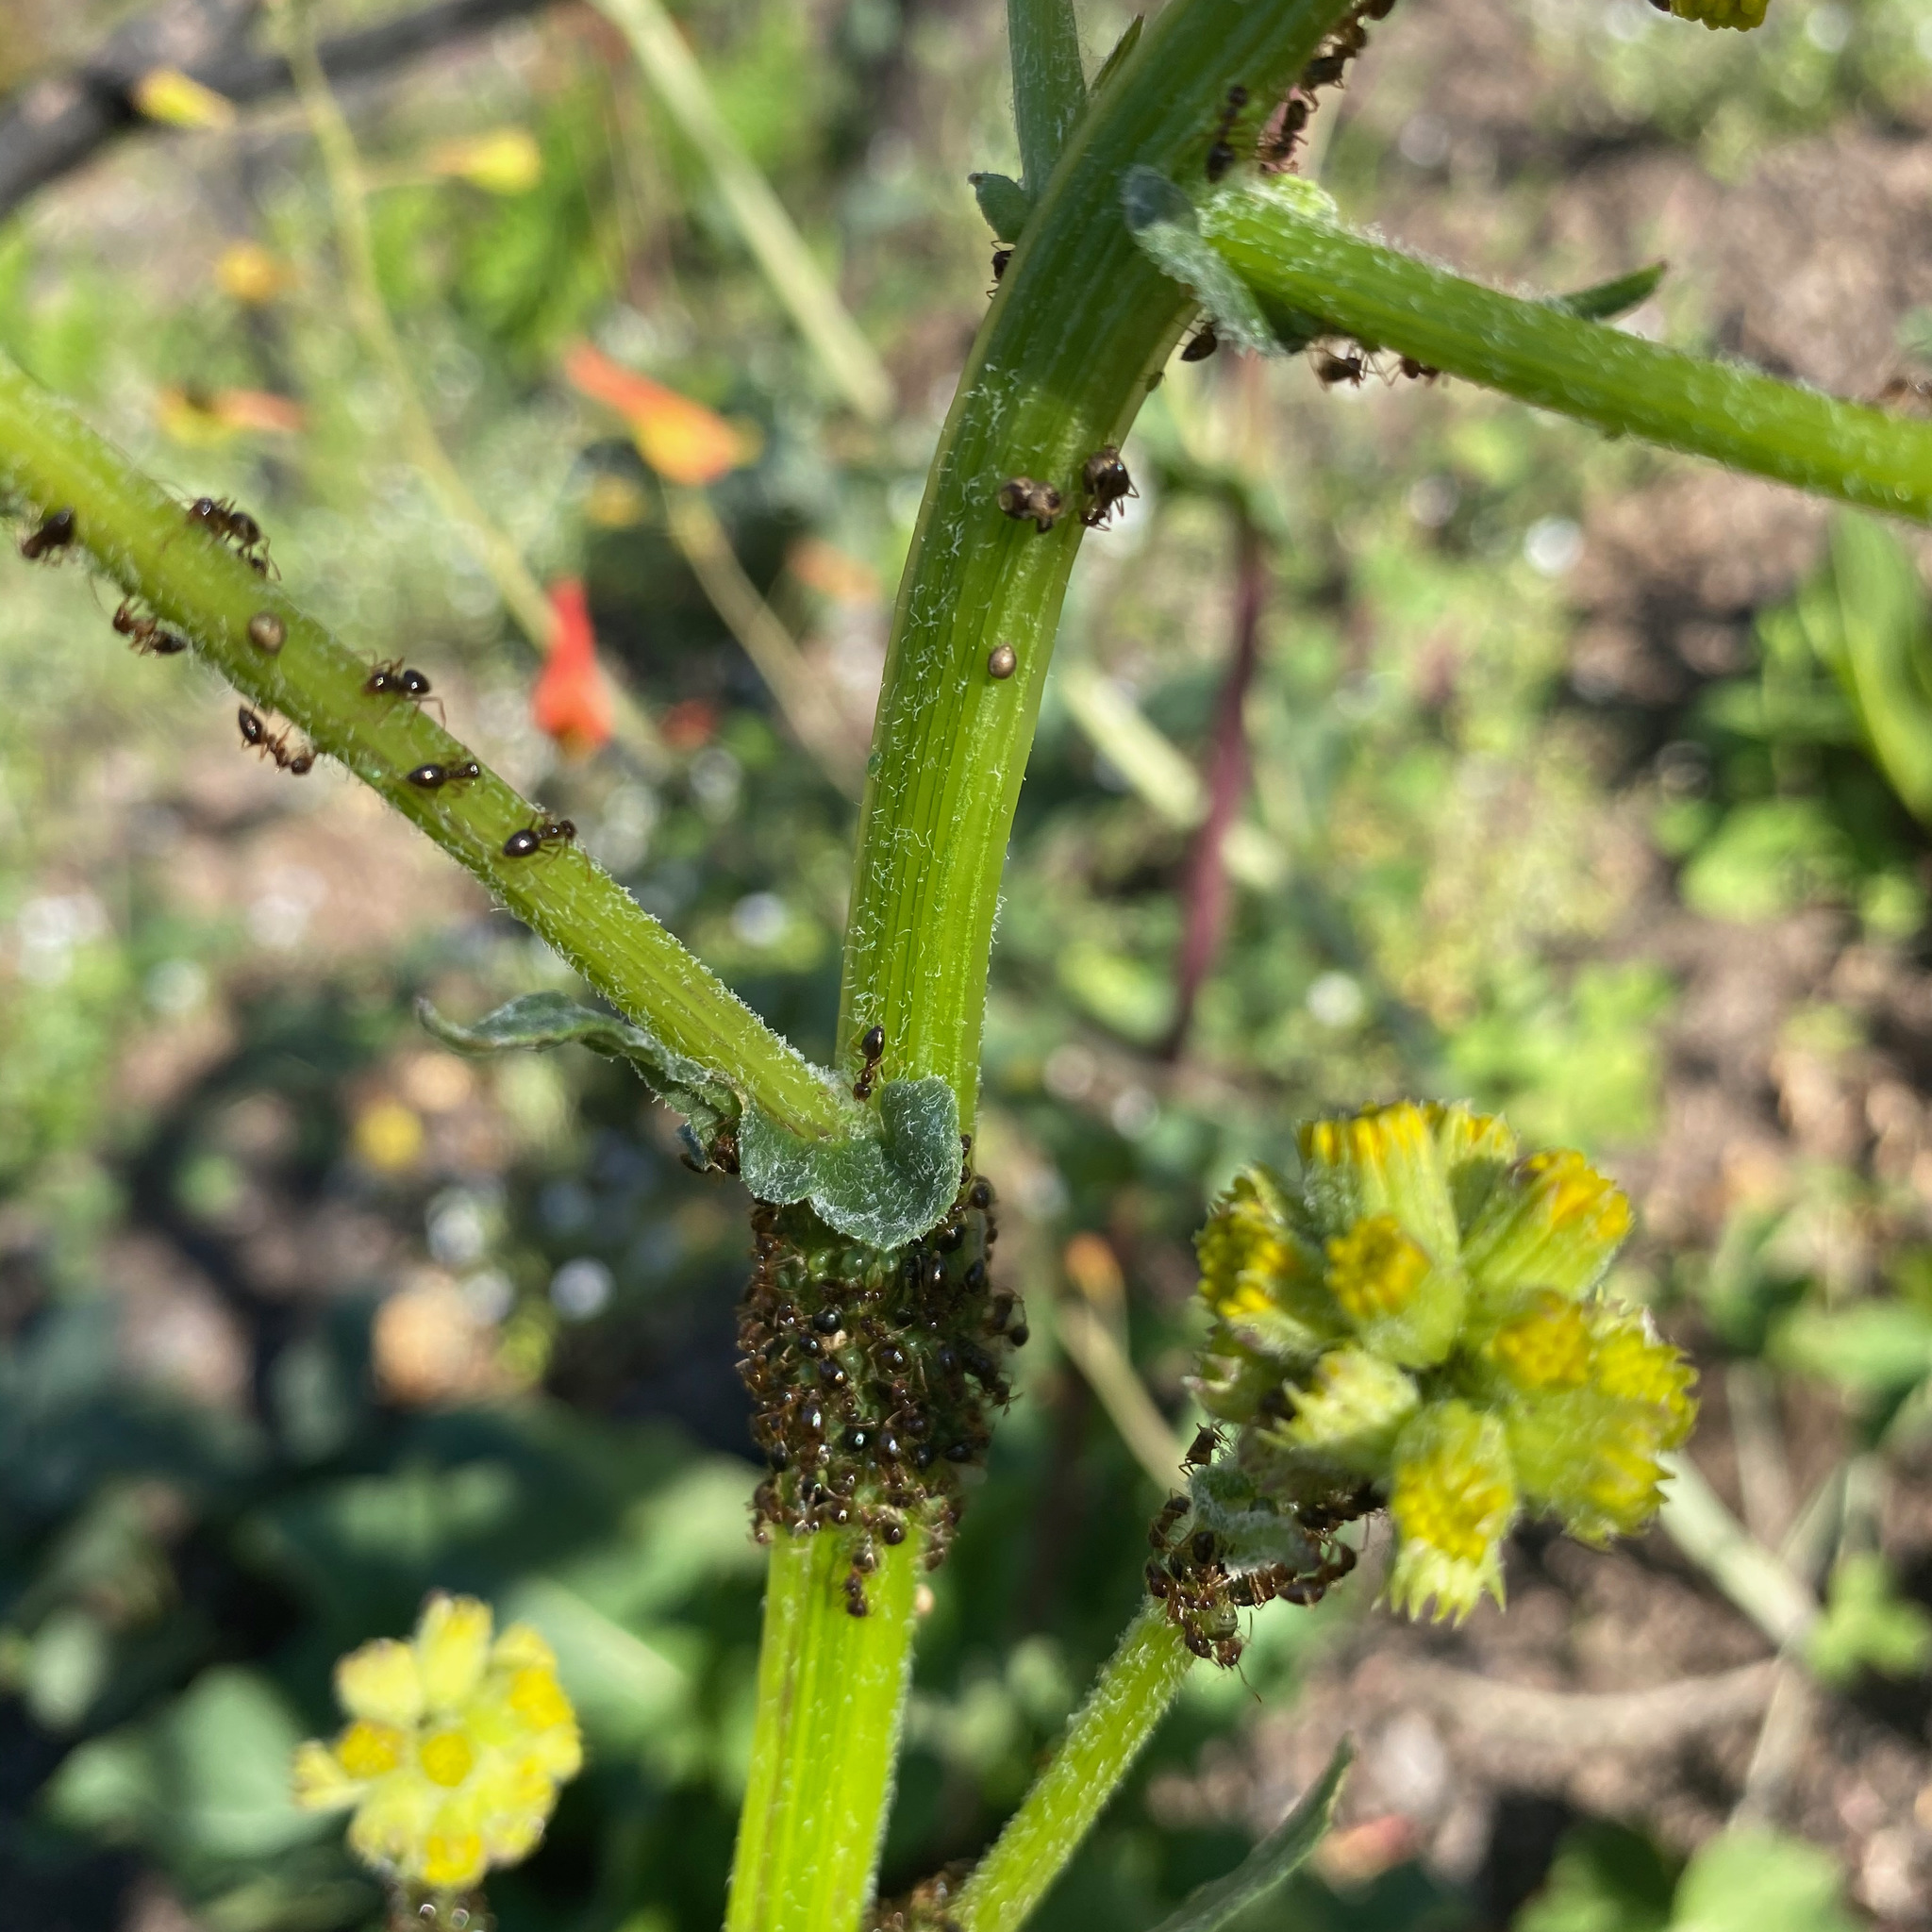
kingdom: Plantae
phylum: Tracheophyta
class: Magnoliopsida
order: Asterales
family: Asteraceae
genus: Senecio
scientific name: Senecio aronicoides
